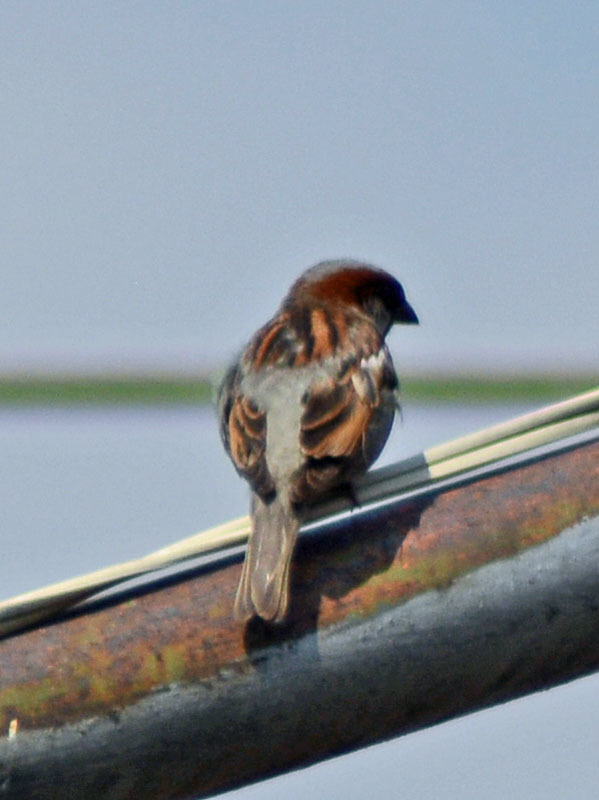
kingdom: Animalia
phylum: Chordata
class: Aves
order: Passeriformes
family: Passeridae
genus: Passer
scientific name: Passer domesticus
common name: House sparrow
